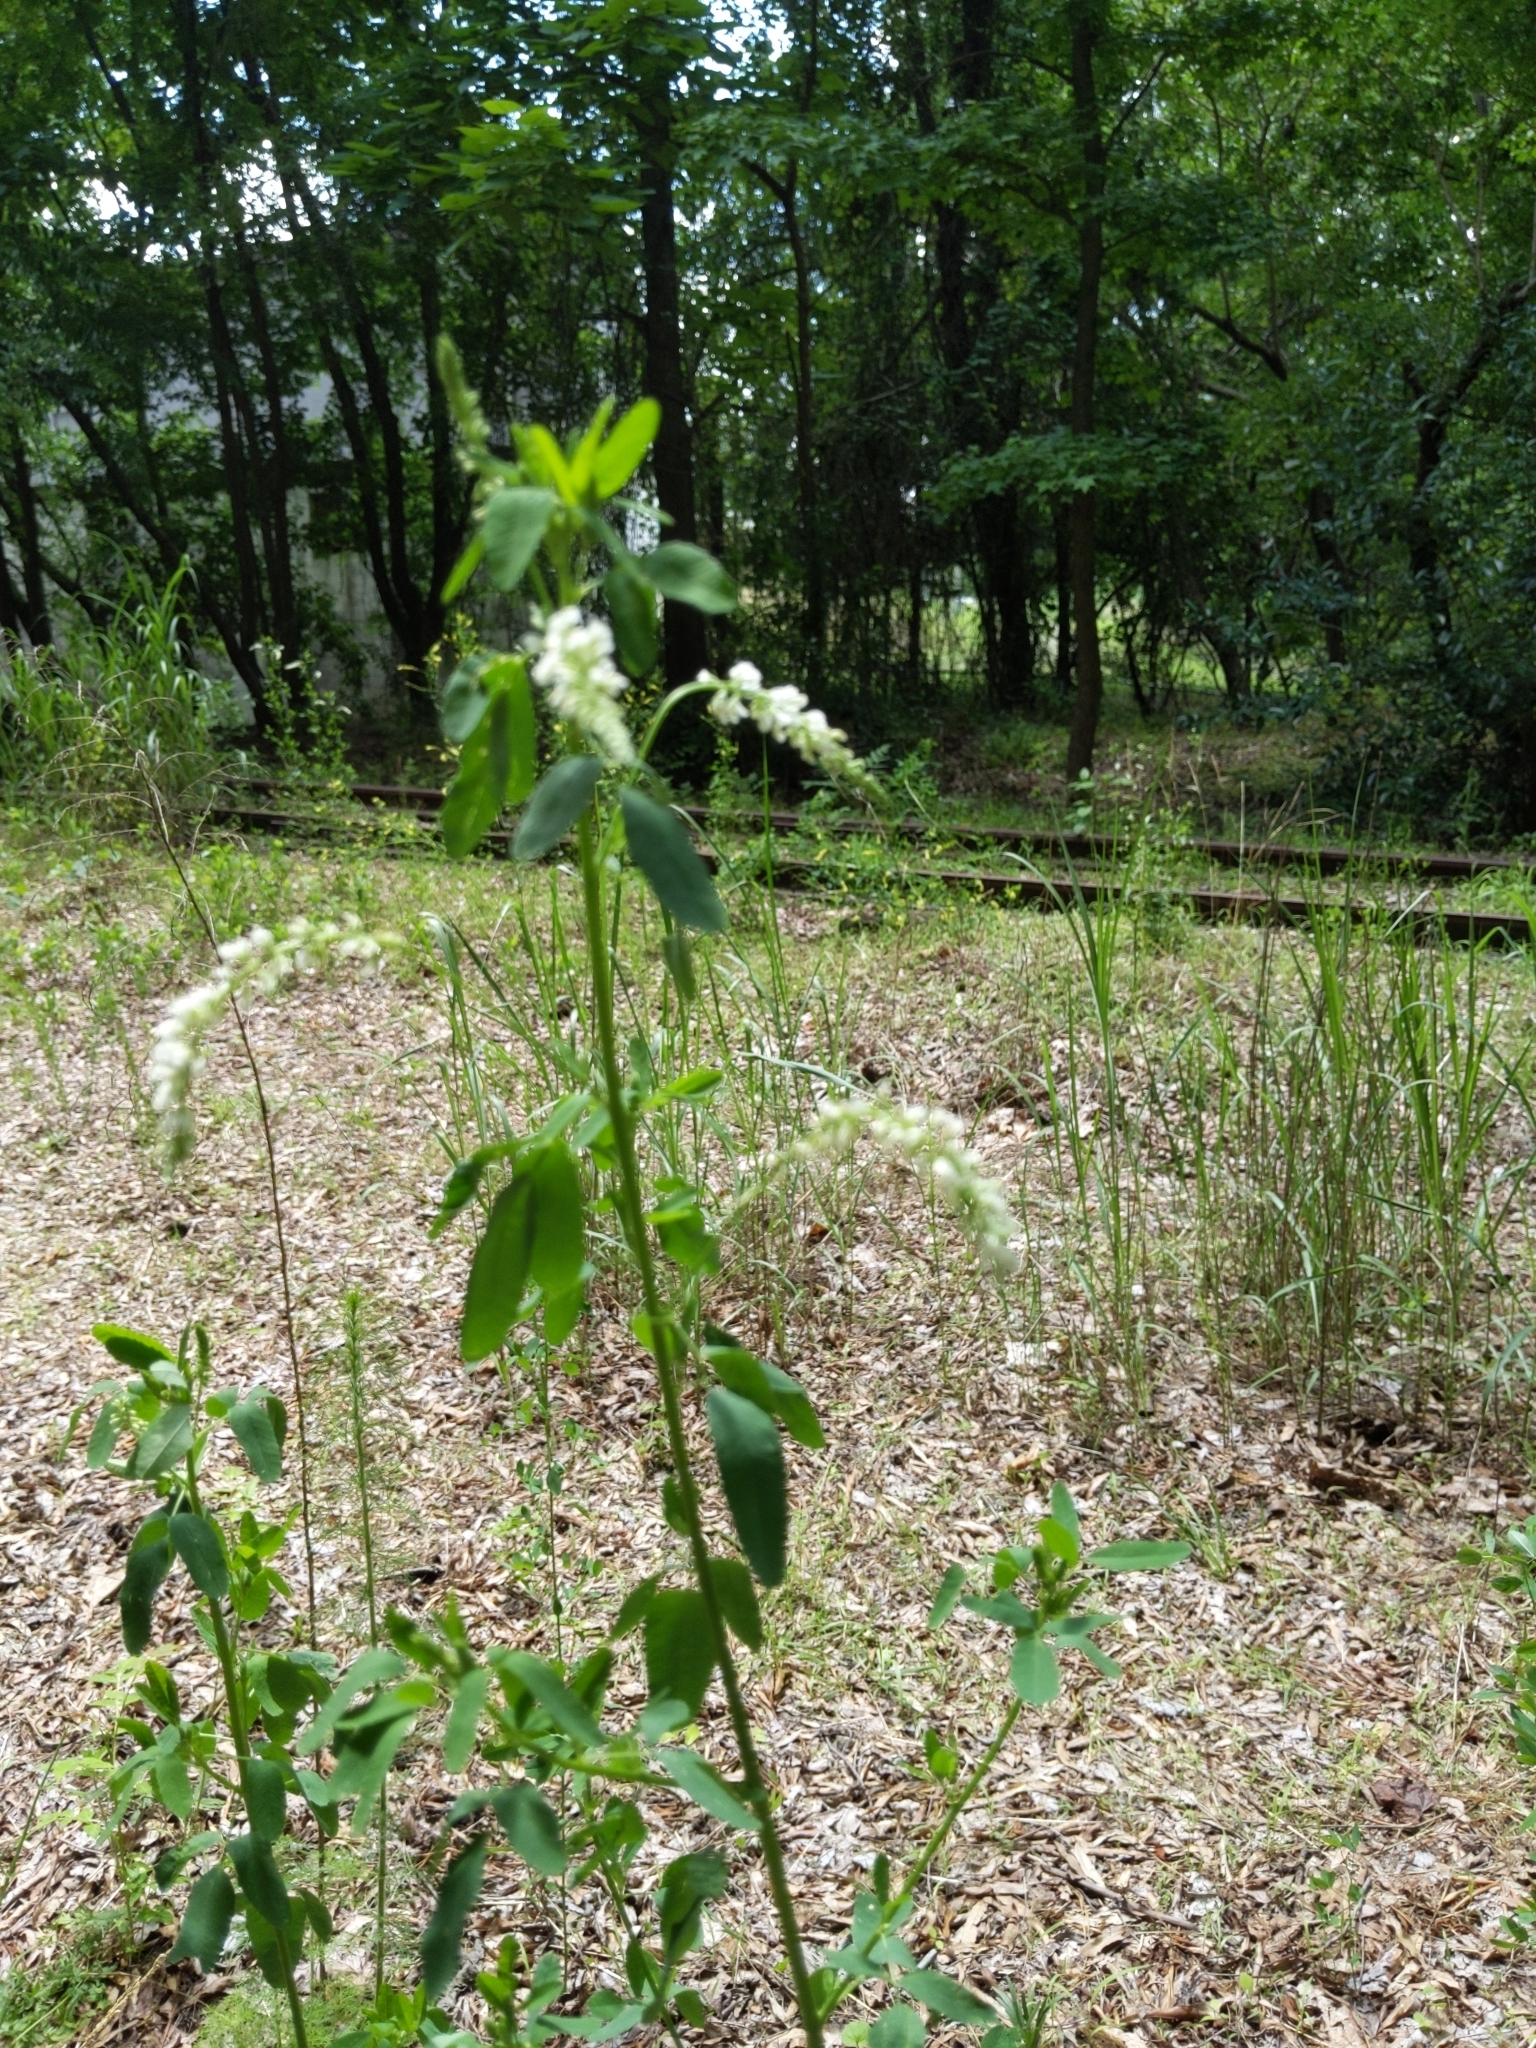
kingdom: Plantae
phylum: Tracheophyta
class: Magnoliopsida
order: Fabales
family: Fabaceae
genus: Melilotus
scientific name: Melilotus albus
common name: White melilot
